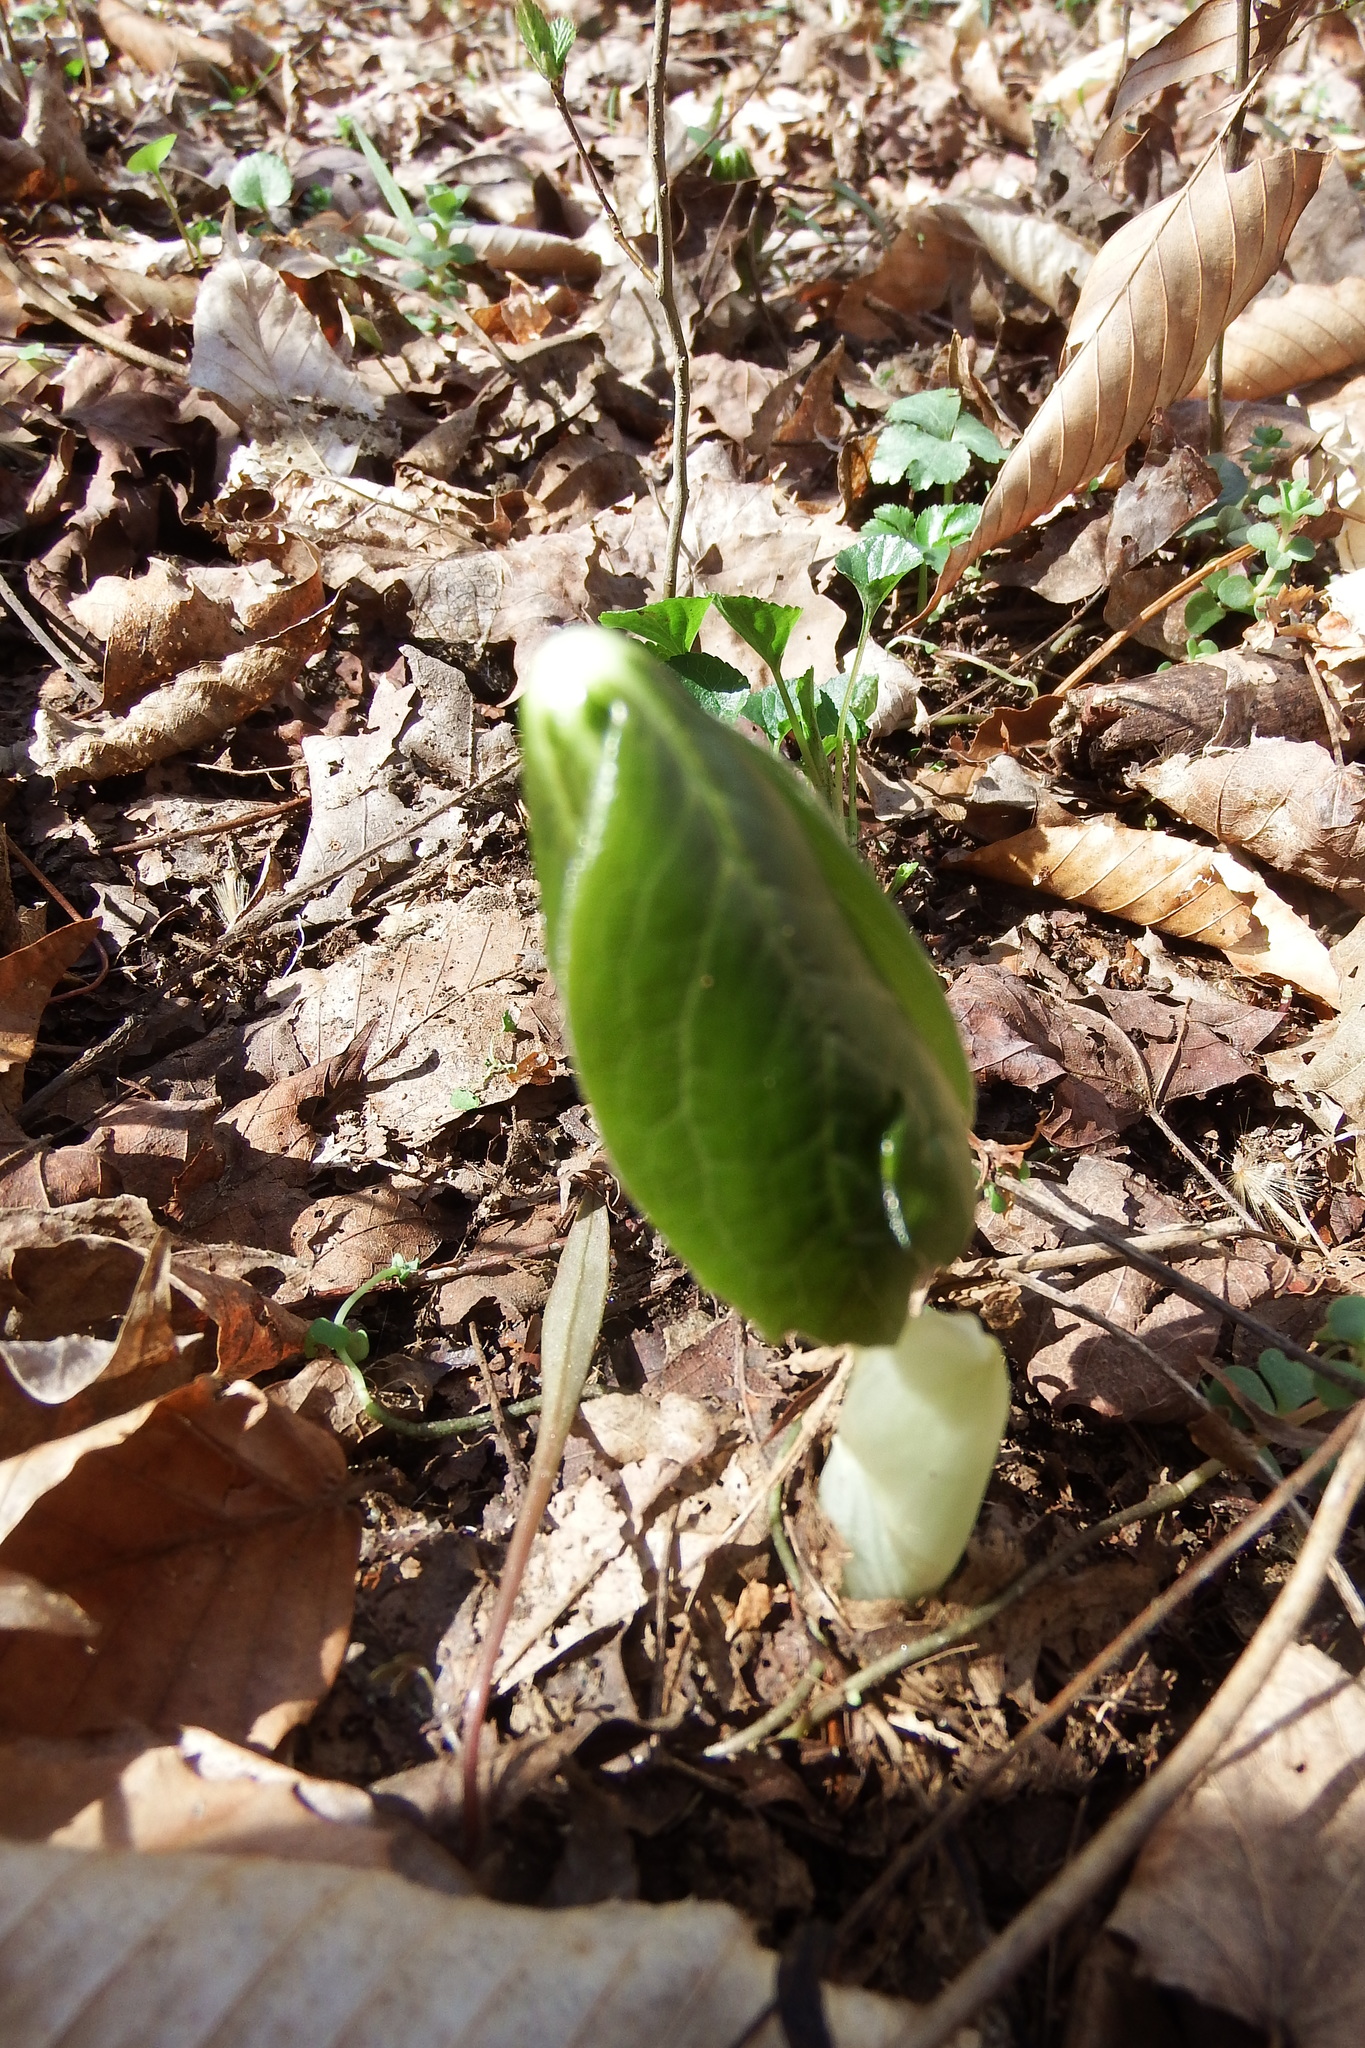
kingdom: Plantae
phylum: Tracheophyta
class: Magnoliopsida
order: Ranunculales
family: Berberidaceae
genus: Podophyllum
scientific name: Podophyllum peltatum
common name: Wild mandrake
